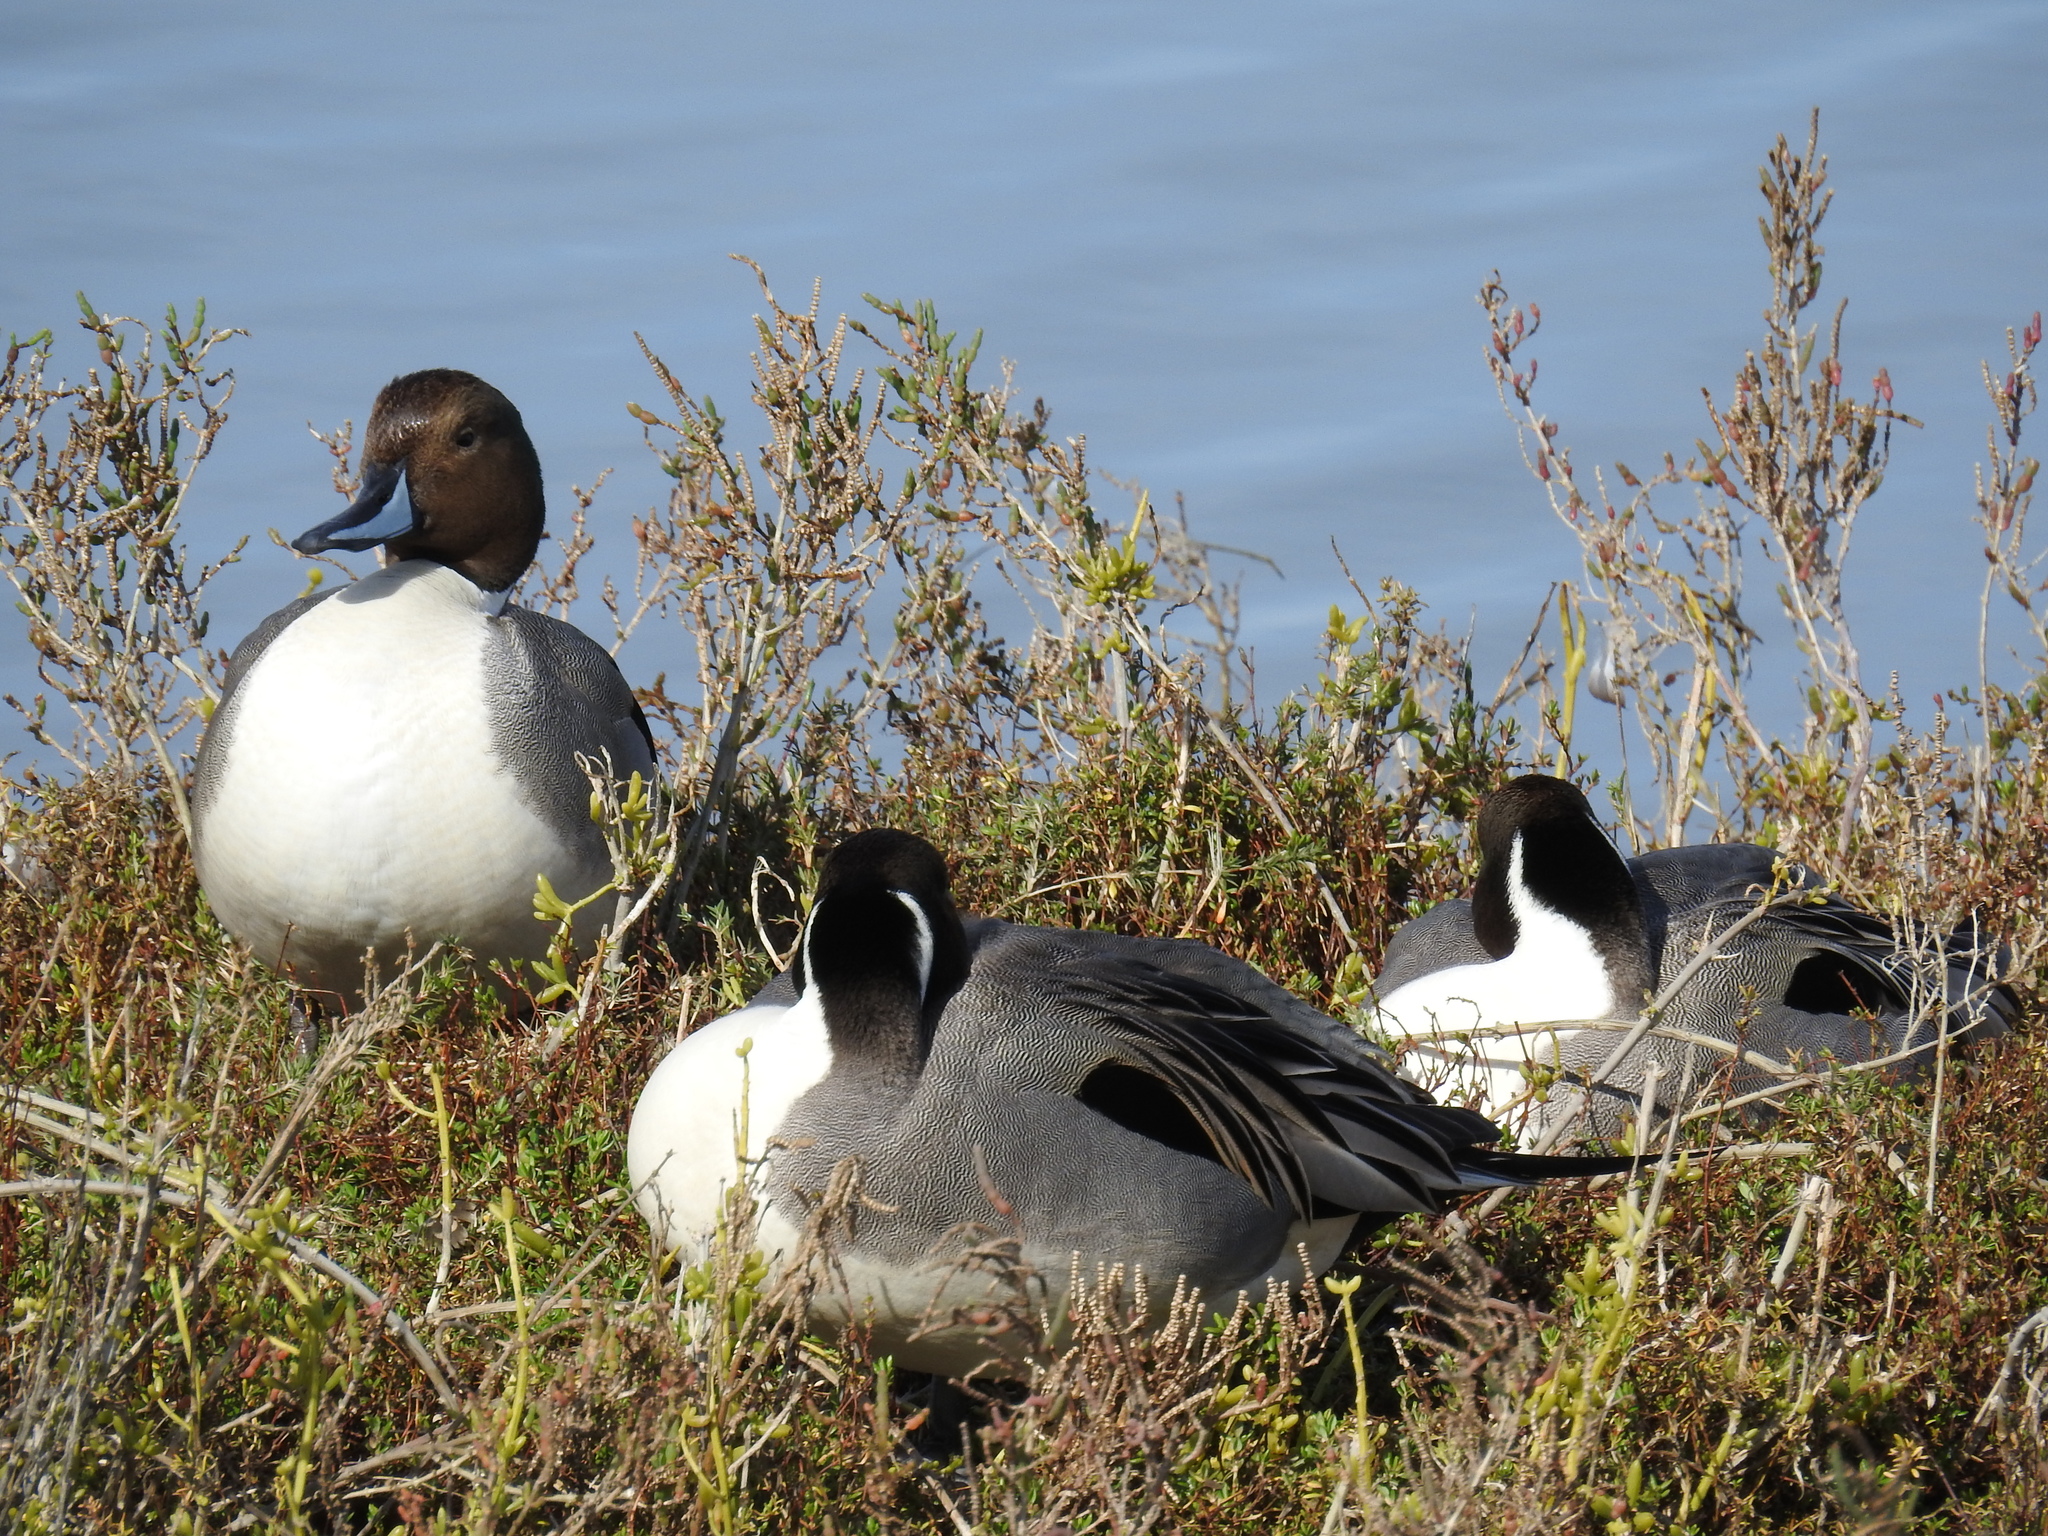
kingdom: Animalia
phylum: Chordata
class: Aves
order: Anseriformes
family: Anatidae
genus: Anas
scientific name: Anas acuta
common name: Northern pintail
